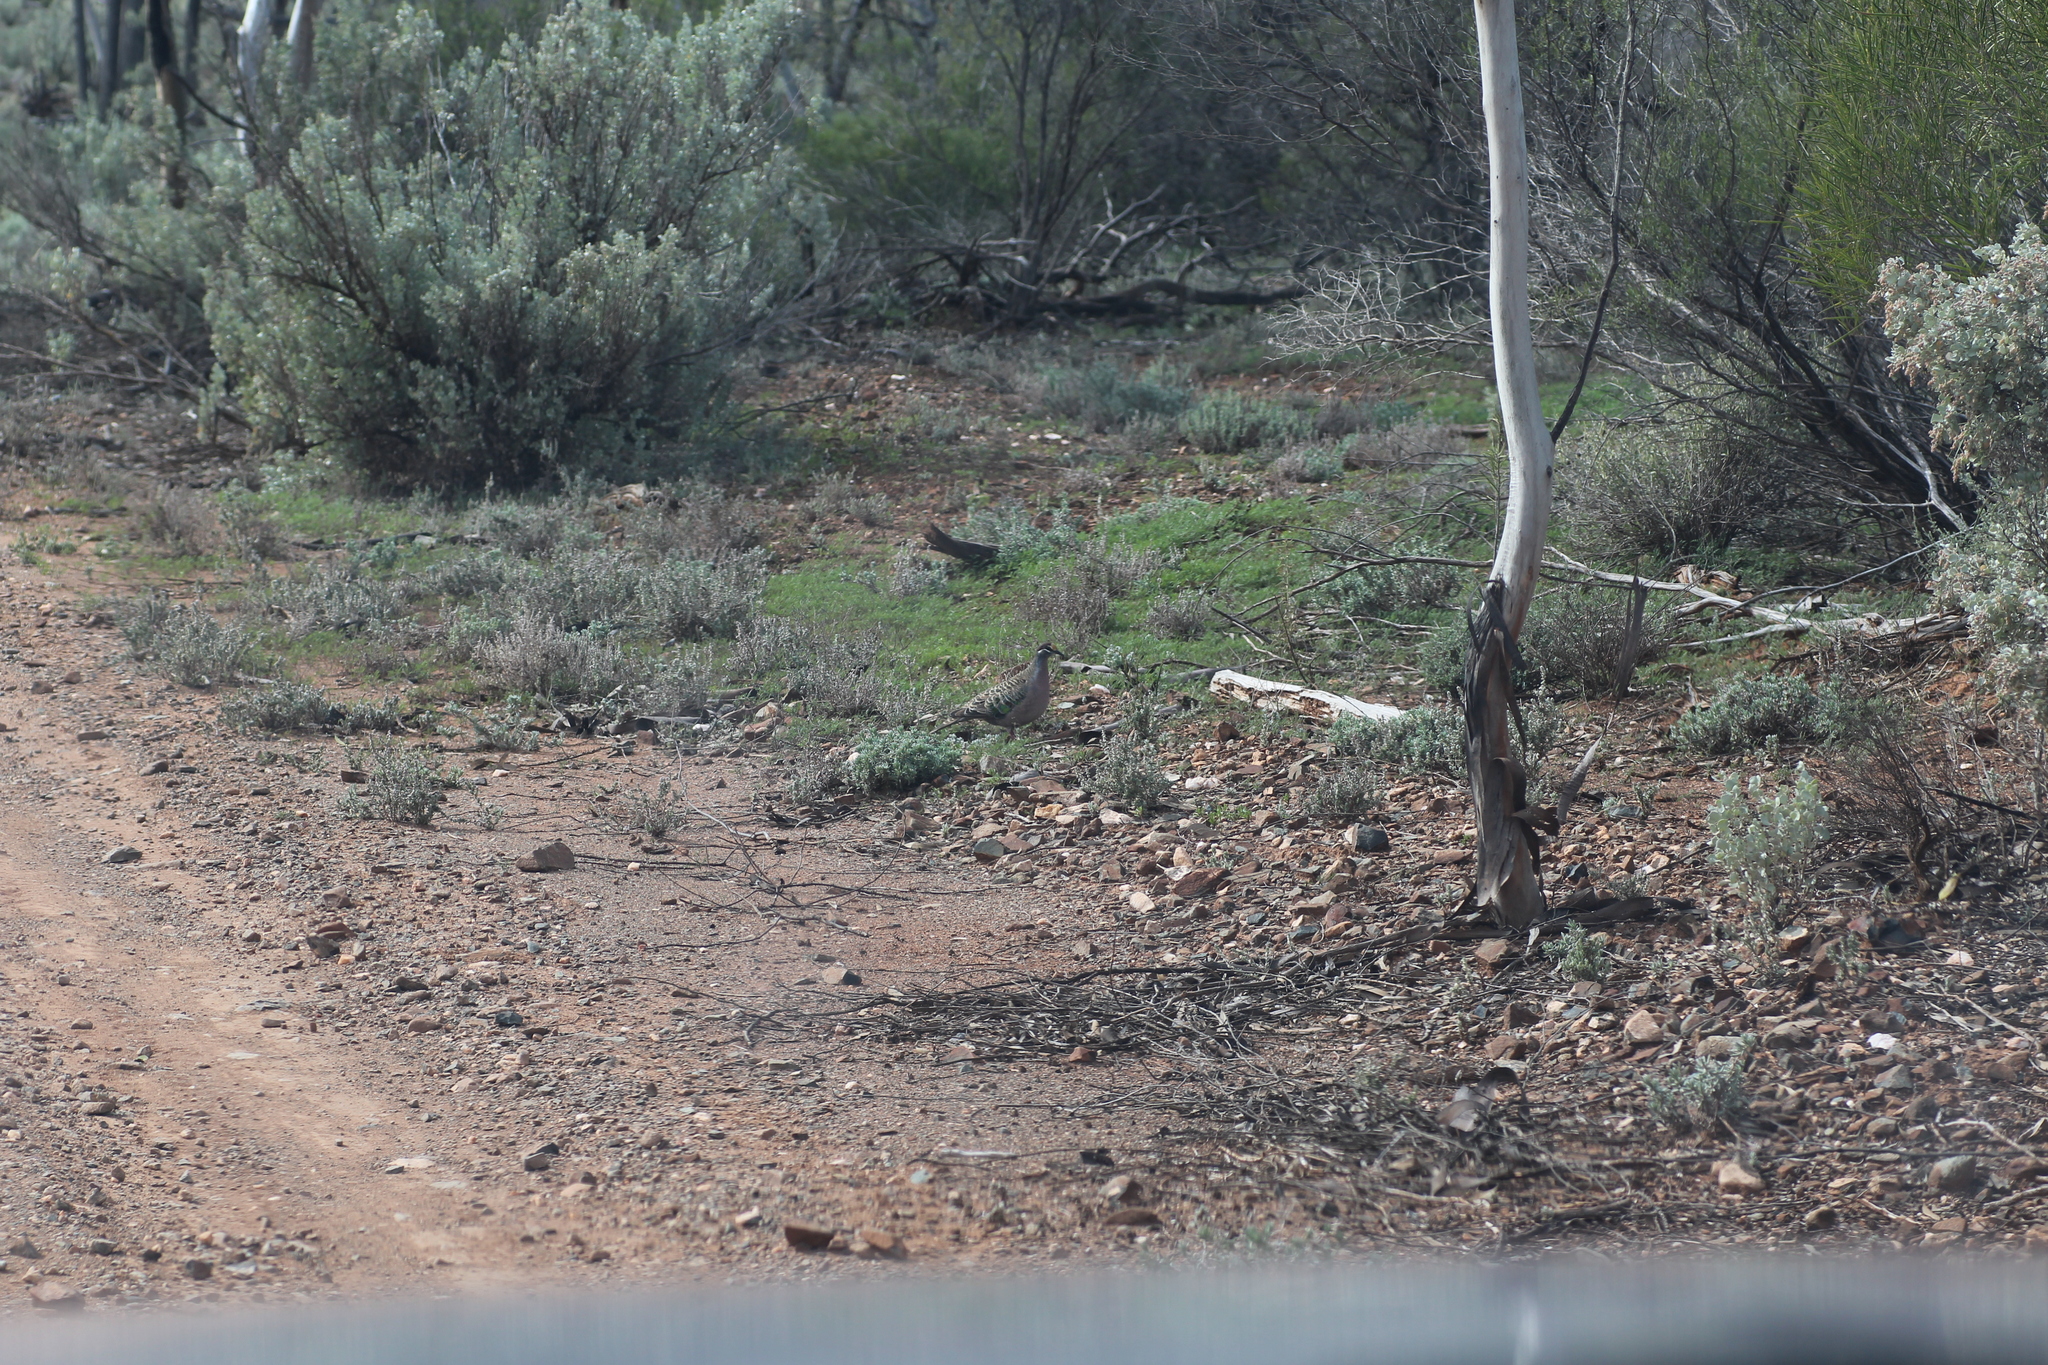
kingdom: Animalia
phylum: Chordata
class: Aves
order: Columbiformes
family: Columbidae
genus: Phaps
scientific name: Phaps chalcoptera
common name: Common bronzewing
